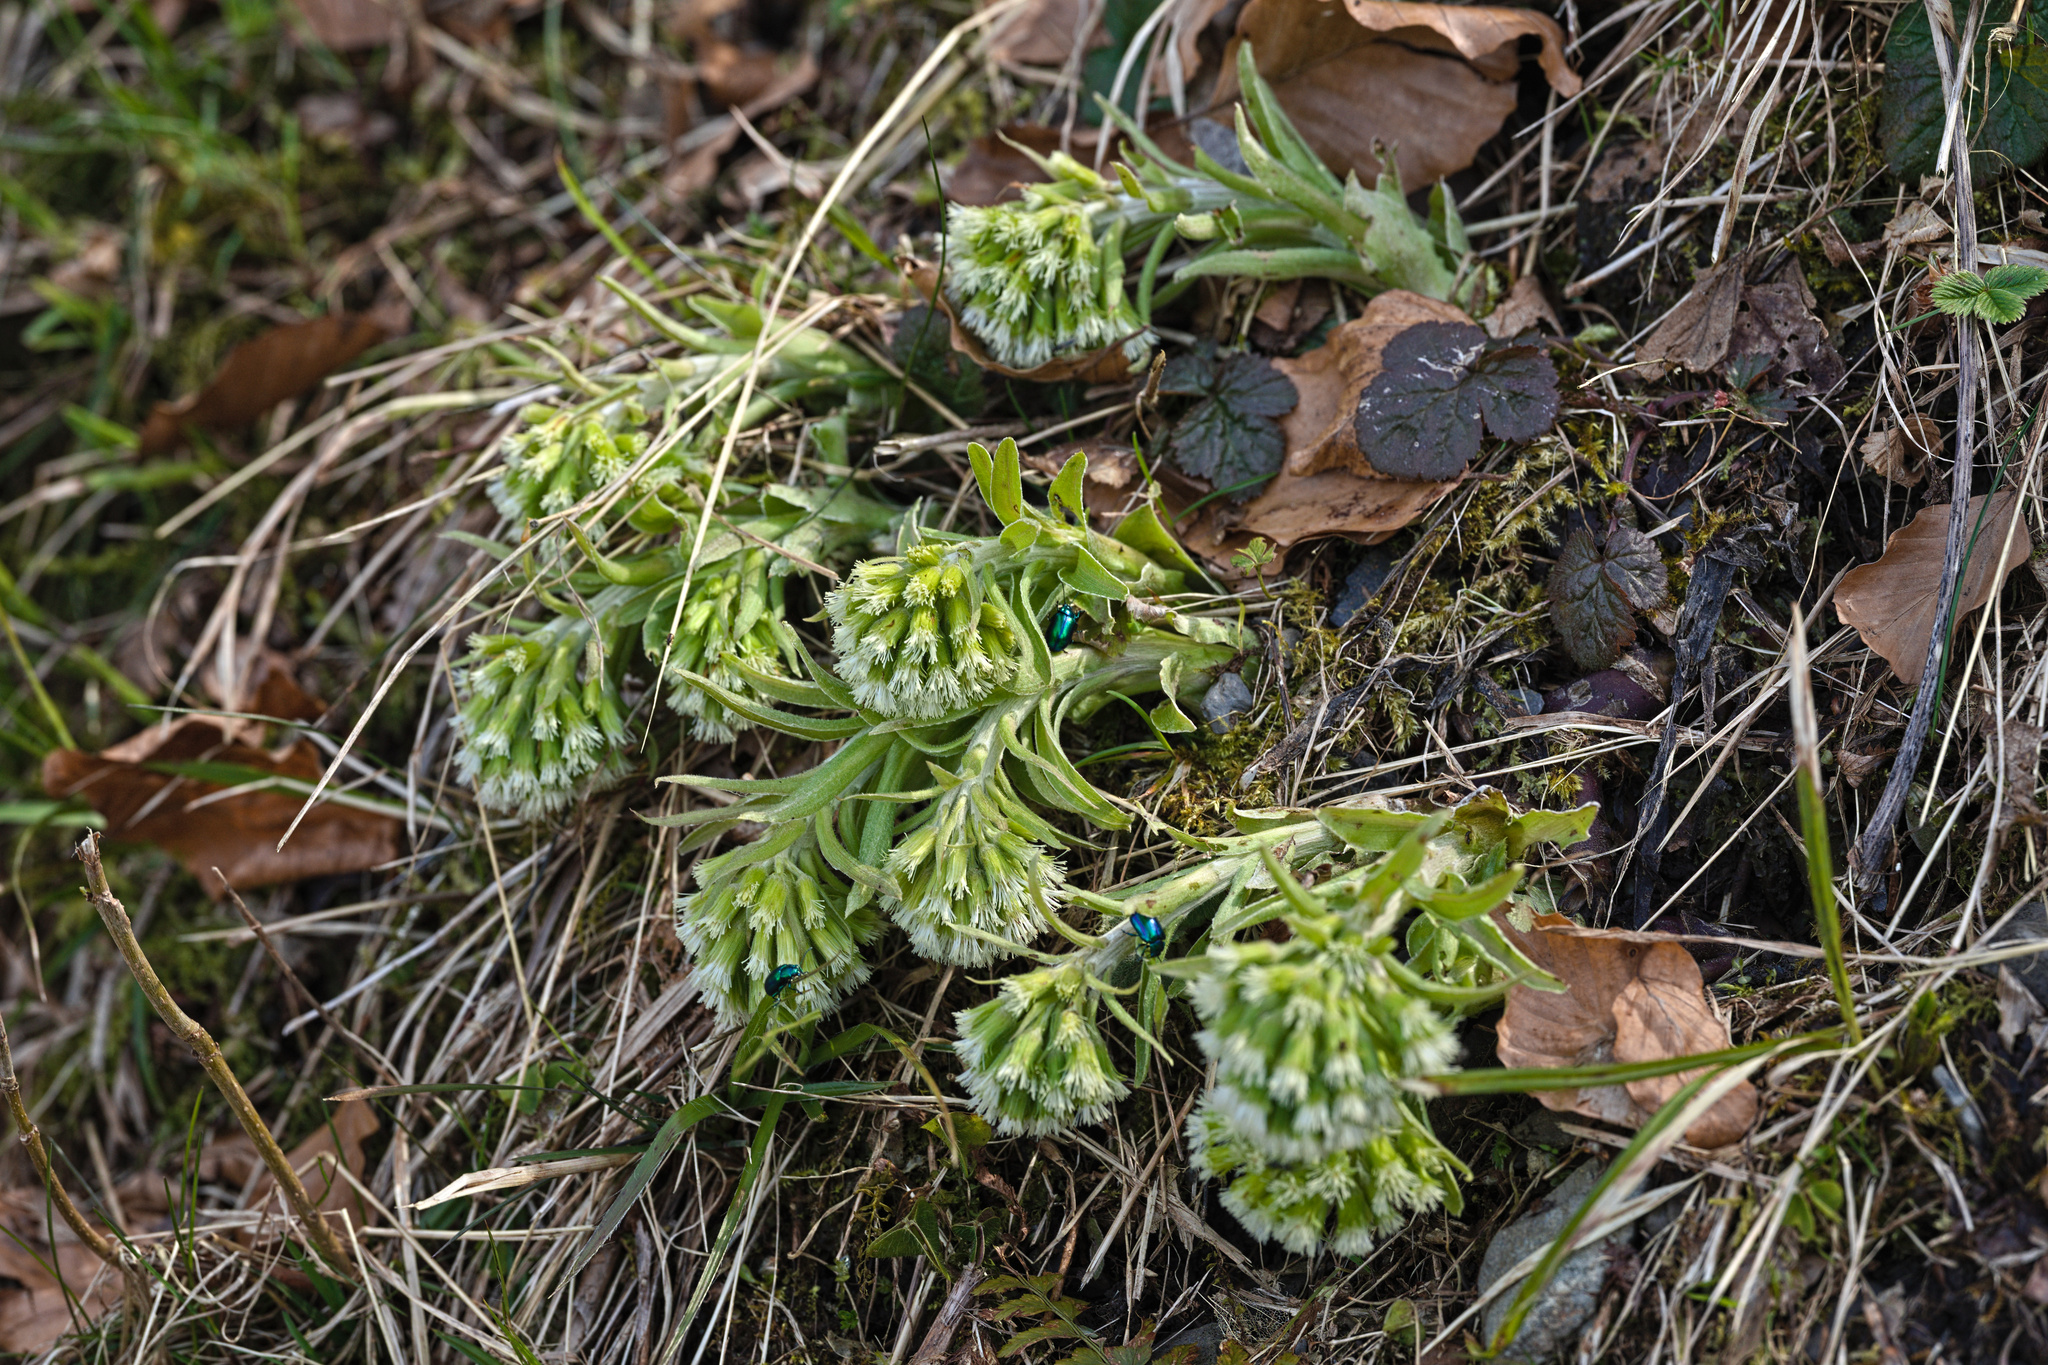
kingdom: Plantae
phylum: Tracheophyta
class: Magnoliopsida
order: Asterales
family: Asteraceae
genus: Petasites
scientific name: Petasites albus
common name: White butterbur
